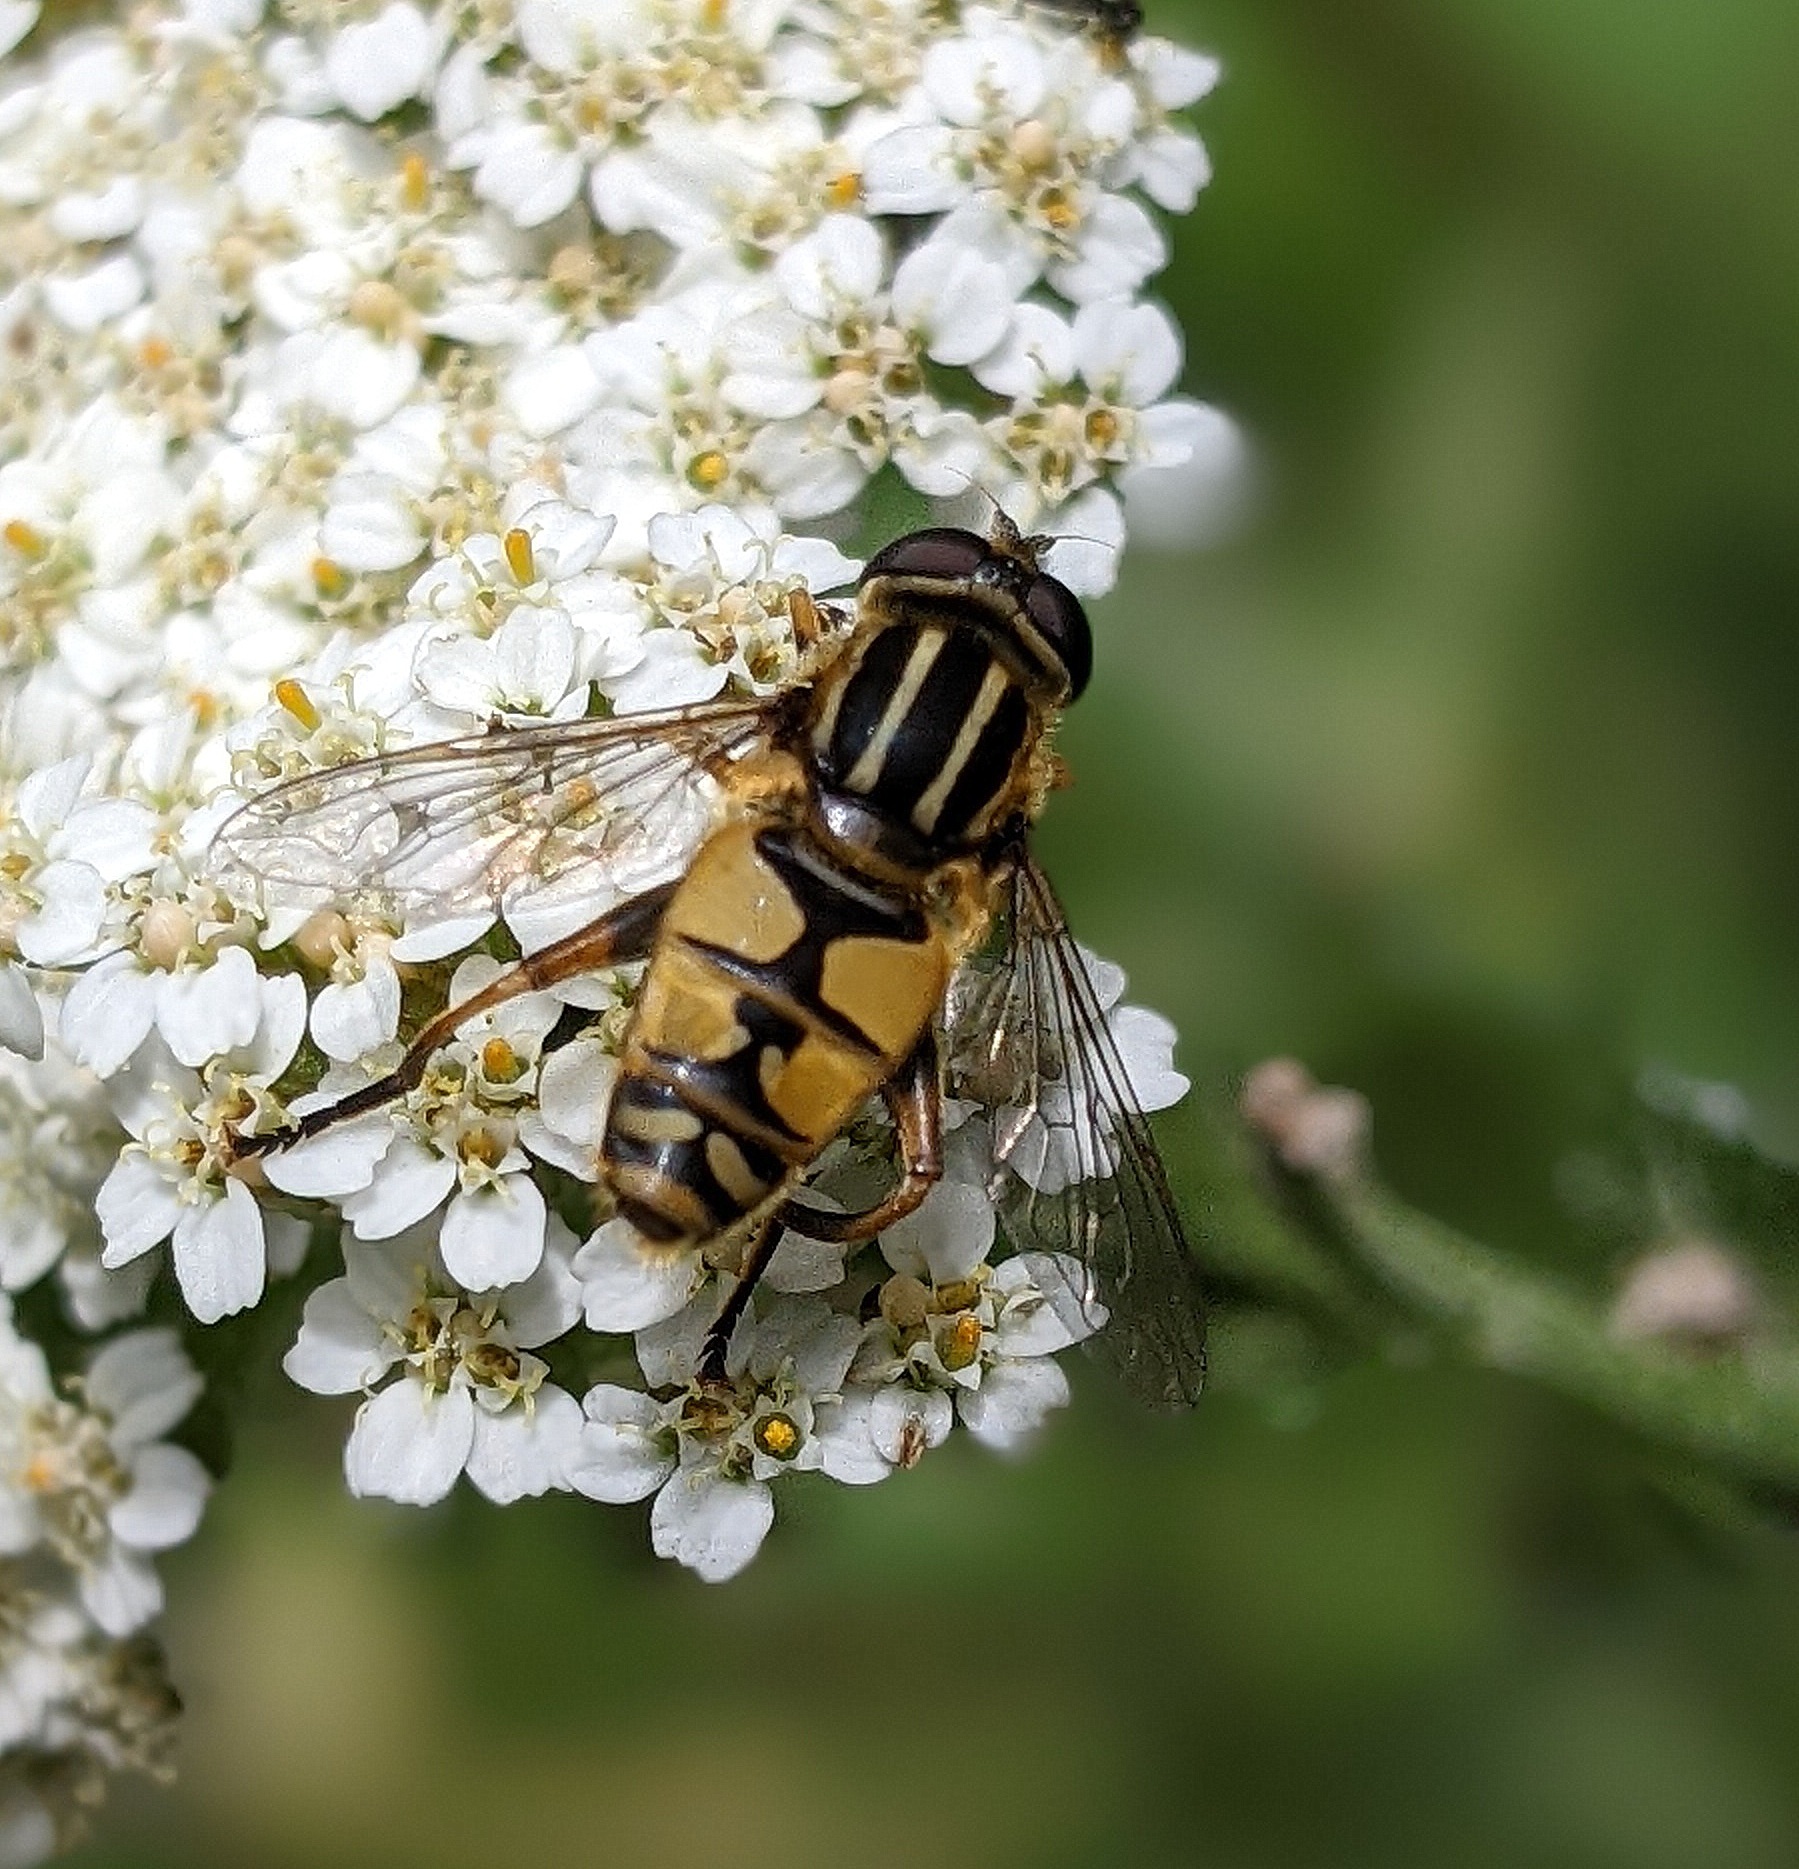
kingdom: Animalia
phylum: Arthropoda
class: Insecta
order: Diptera
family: Syrphidae
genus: Helophilus
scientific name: Helophilus pendulus
